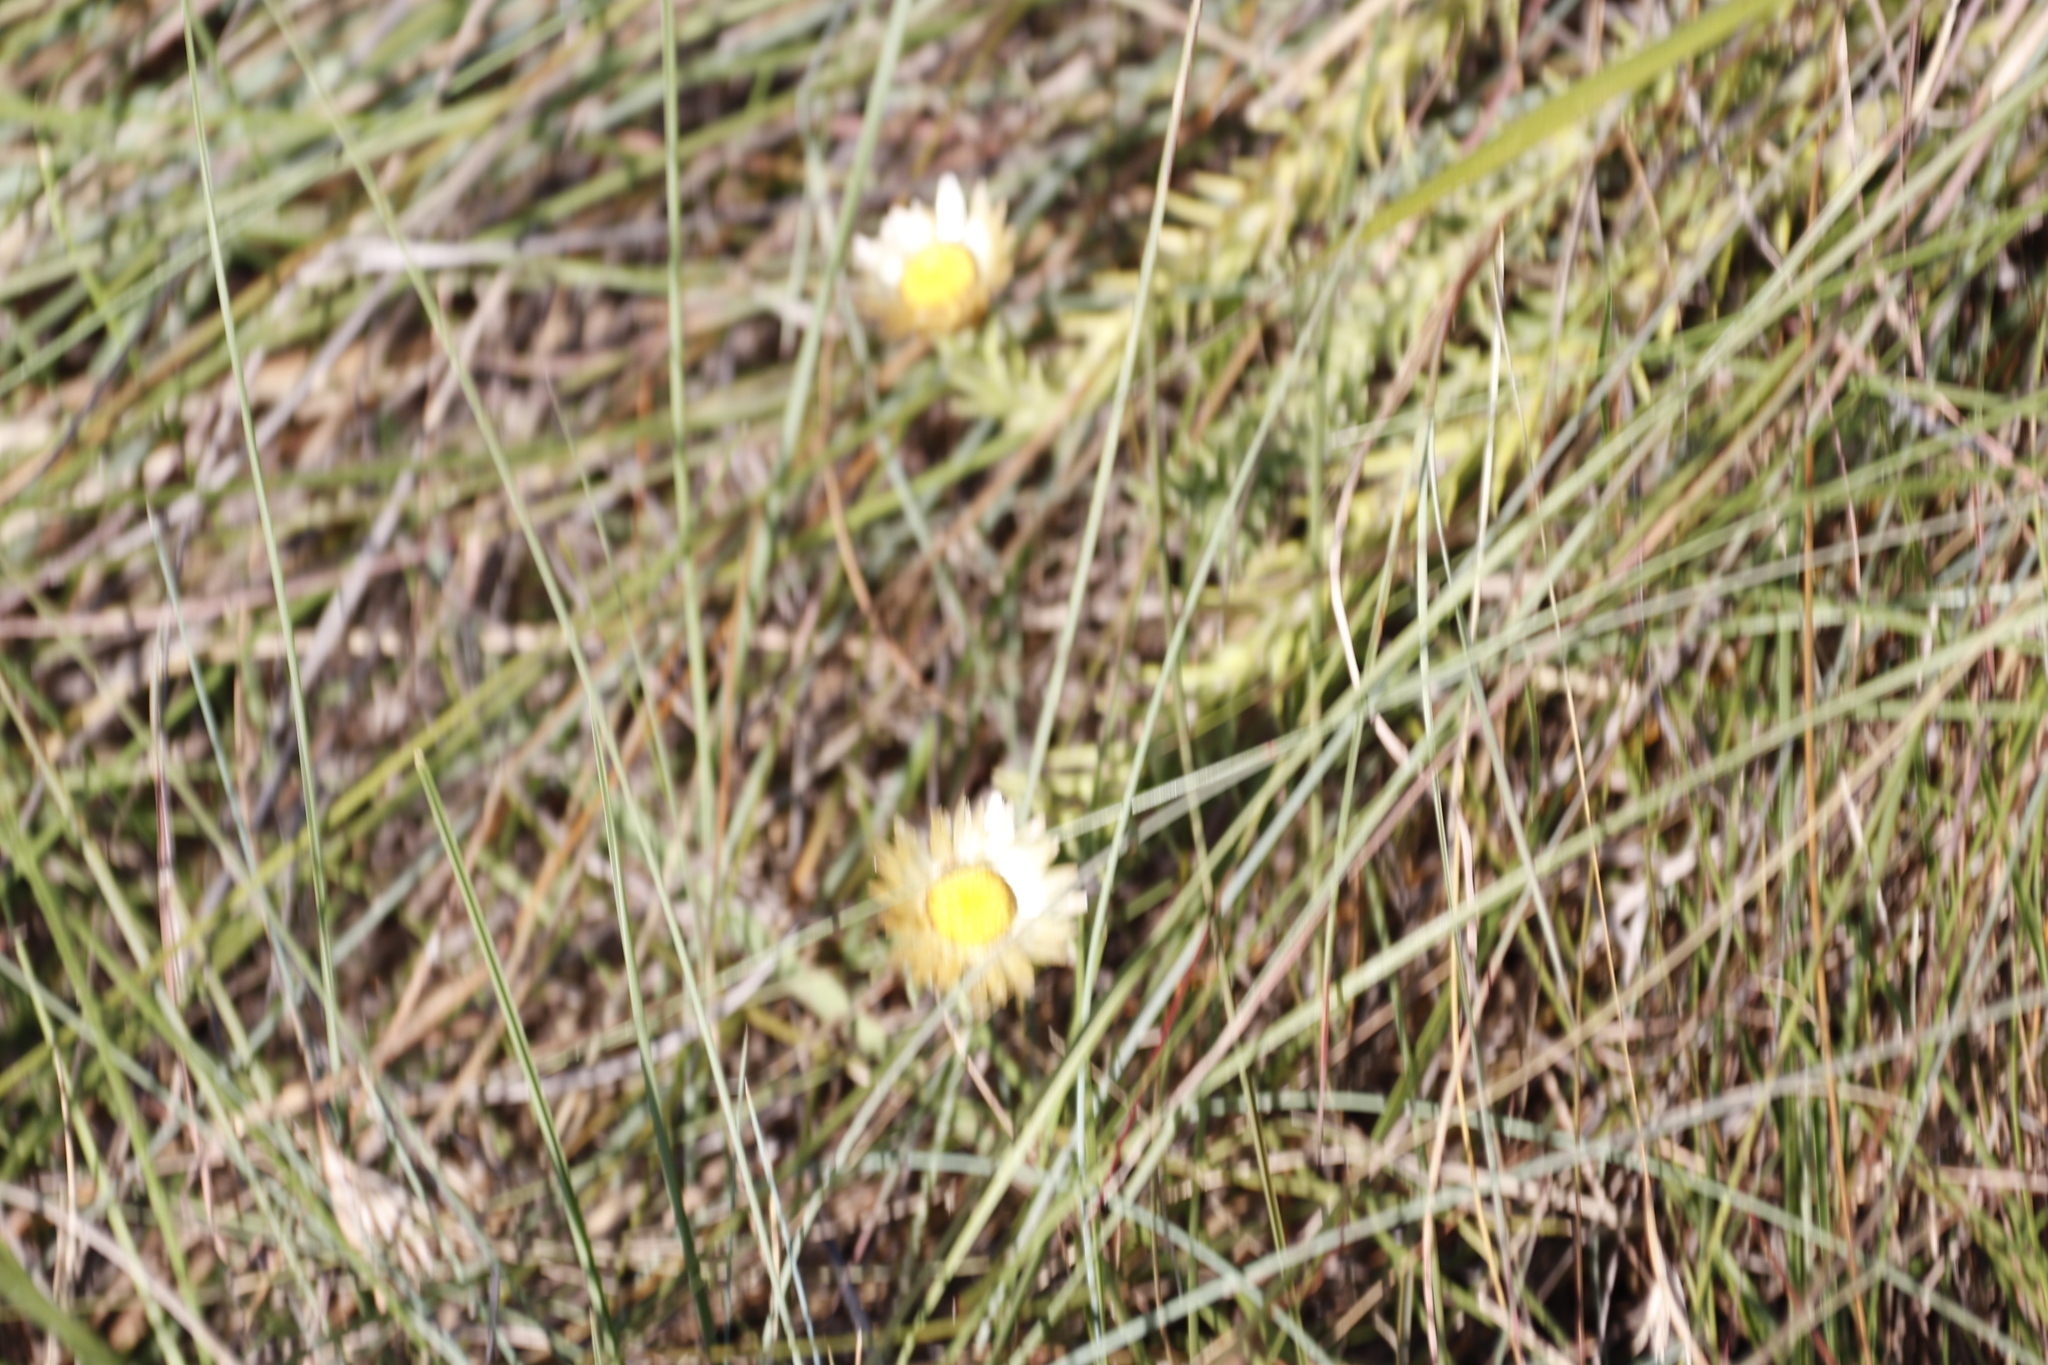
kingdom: Plantae
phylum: Tracheophyta
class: Magnoliopsida
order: Asterales
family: Asteraceae
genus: Helichrysum
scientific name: Helichrysum herbaceum
